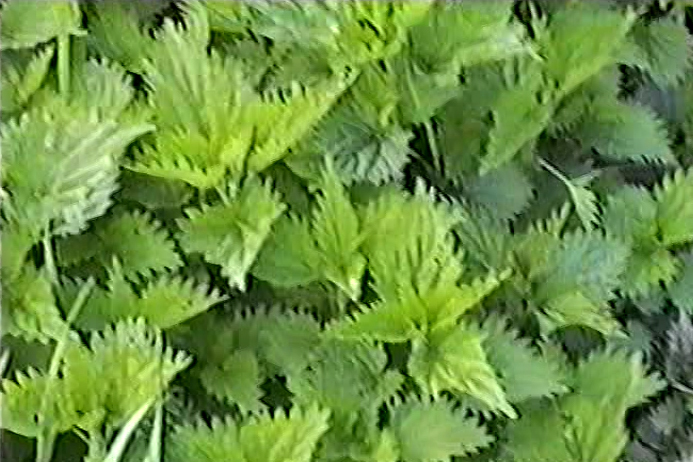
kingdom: Plantae
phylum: Tracheophyta
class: Magnoliopsida
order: Rosales
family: Urticaceae
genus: Urtica
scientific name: Urtica dioica
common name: Common nettle
